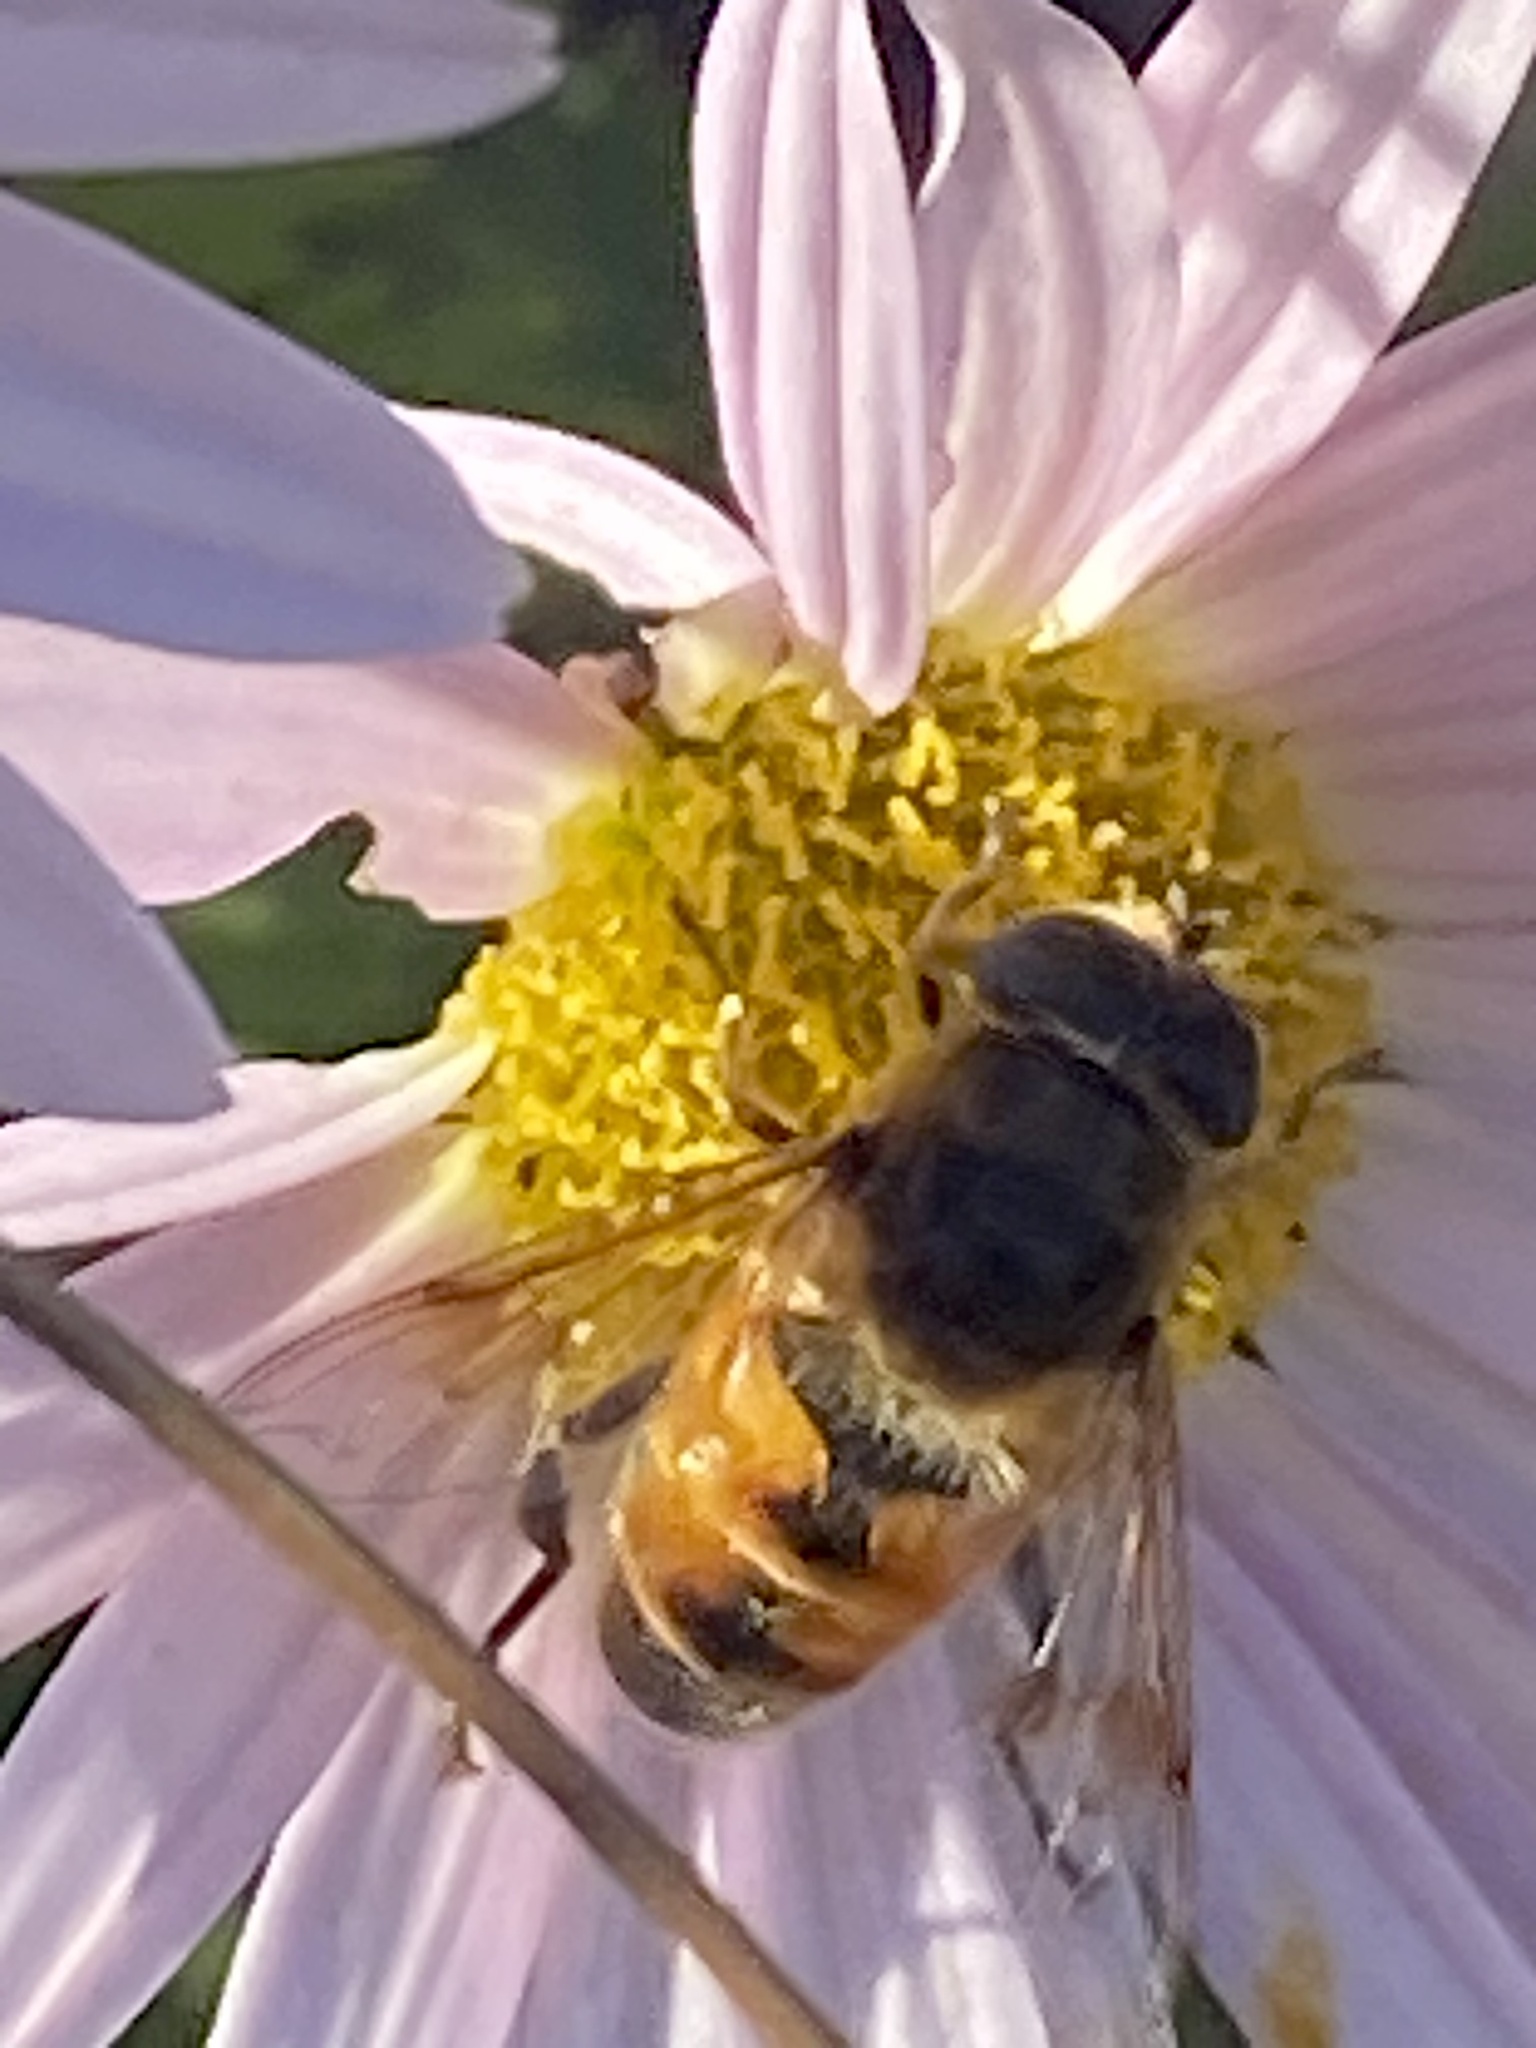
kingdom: Animalia
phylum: Arthropoda
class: Insecta
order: Diptera
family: Syrphidae
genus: Eristalis
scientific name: Eristalis tenax
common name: Drone fly
